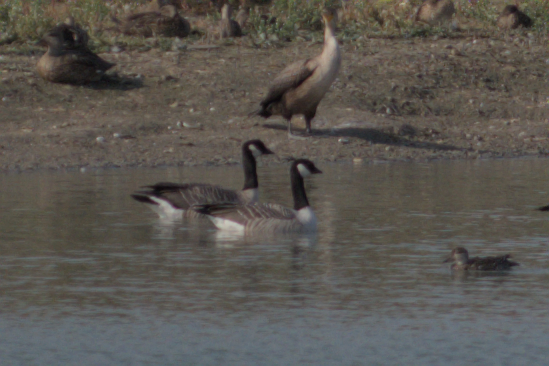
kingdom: Animalia
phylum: Chordata
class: Aves
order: Anseriformes
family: Anatidae
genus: Branta
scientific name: Branta hutchinsii
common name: Cackling goose
